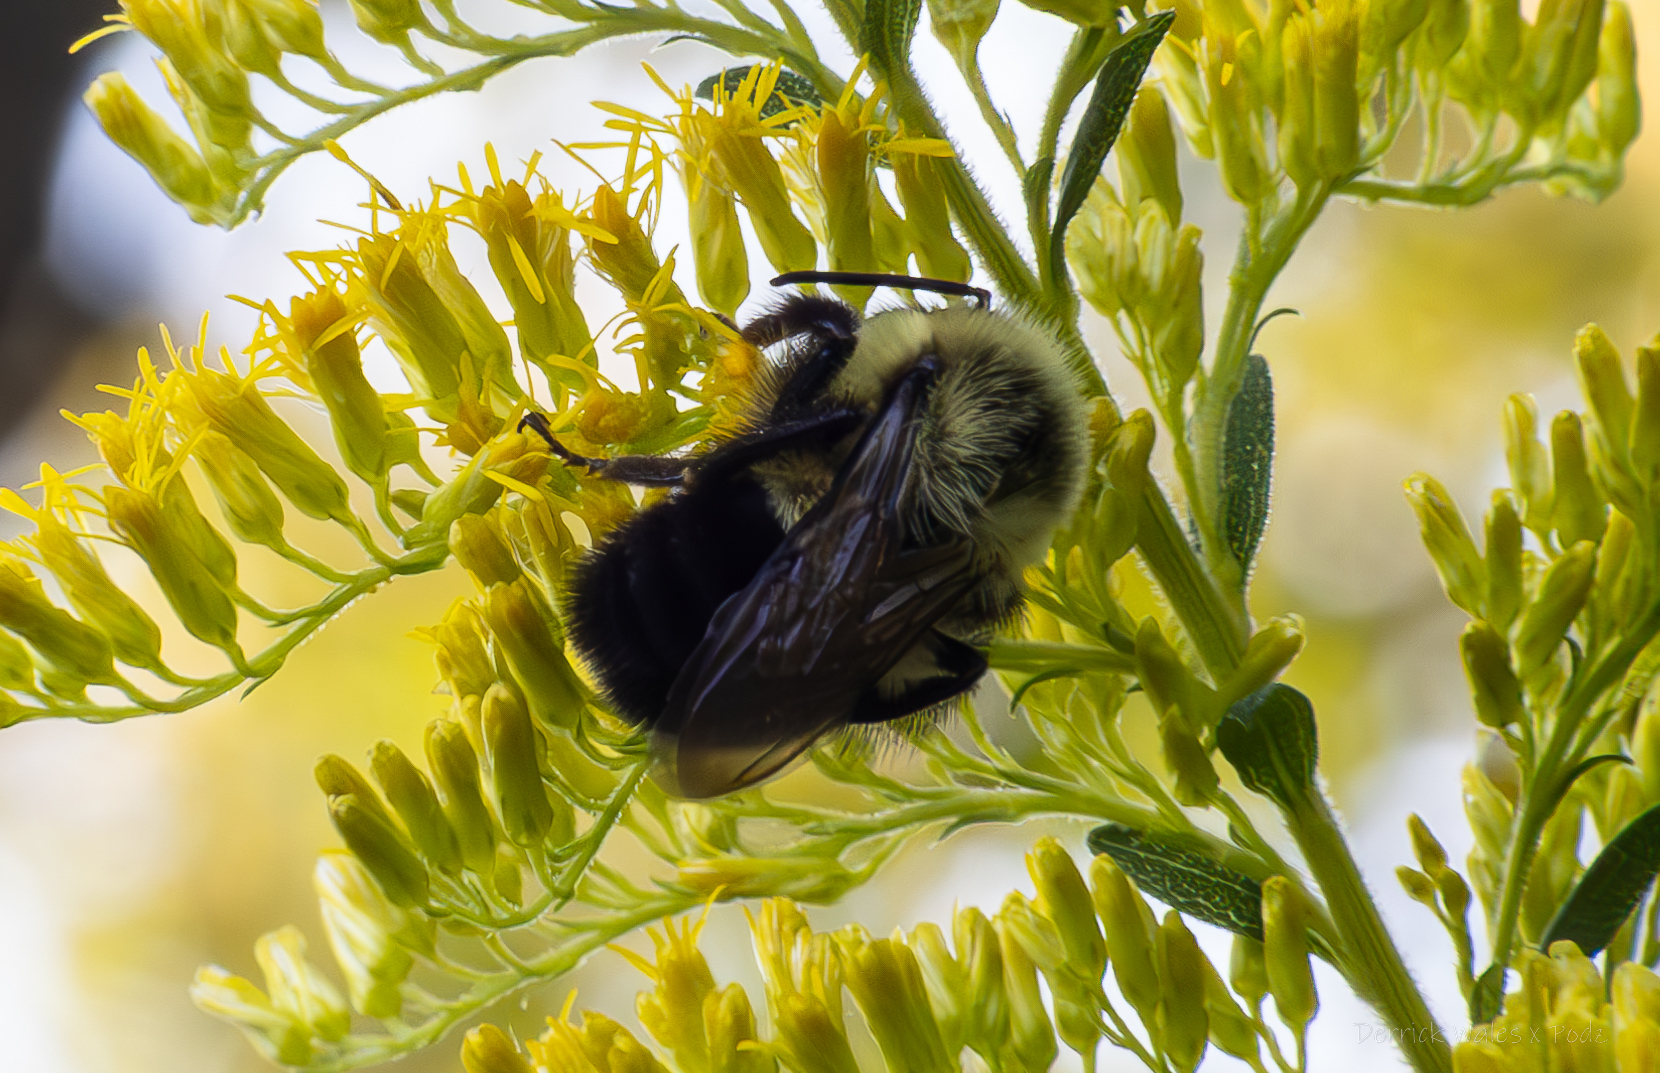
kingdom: Animalia
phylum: Arthropoda
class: Insecta
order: Hymenoptera
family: Apidae
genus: Bombus
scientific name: Bombus impatiens
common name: Common eastern bumble bee
